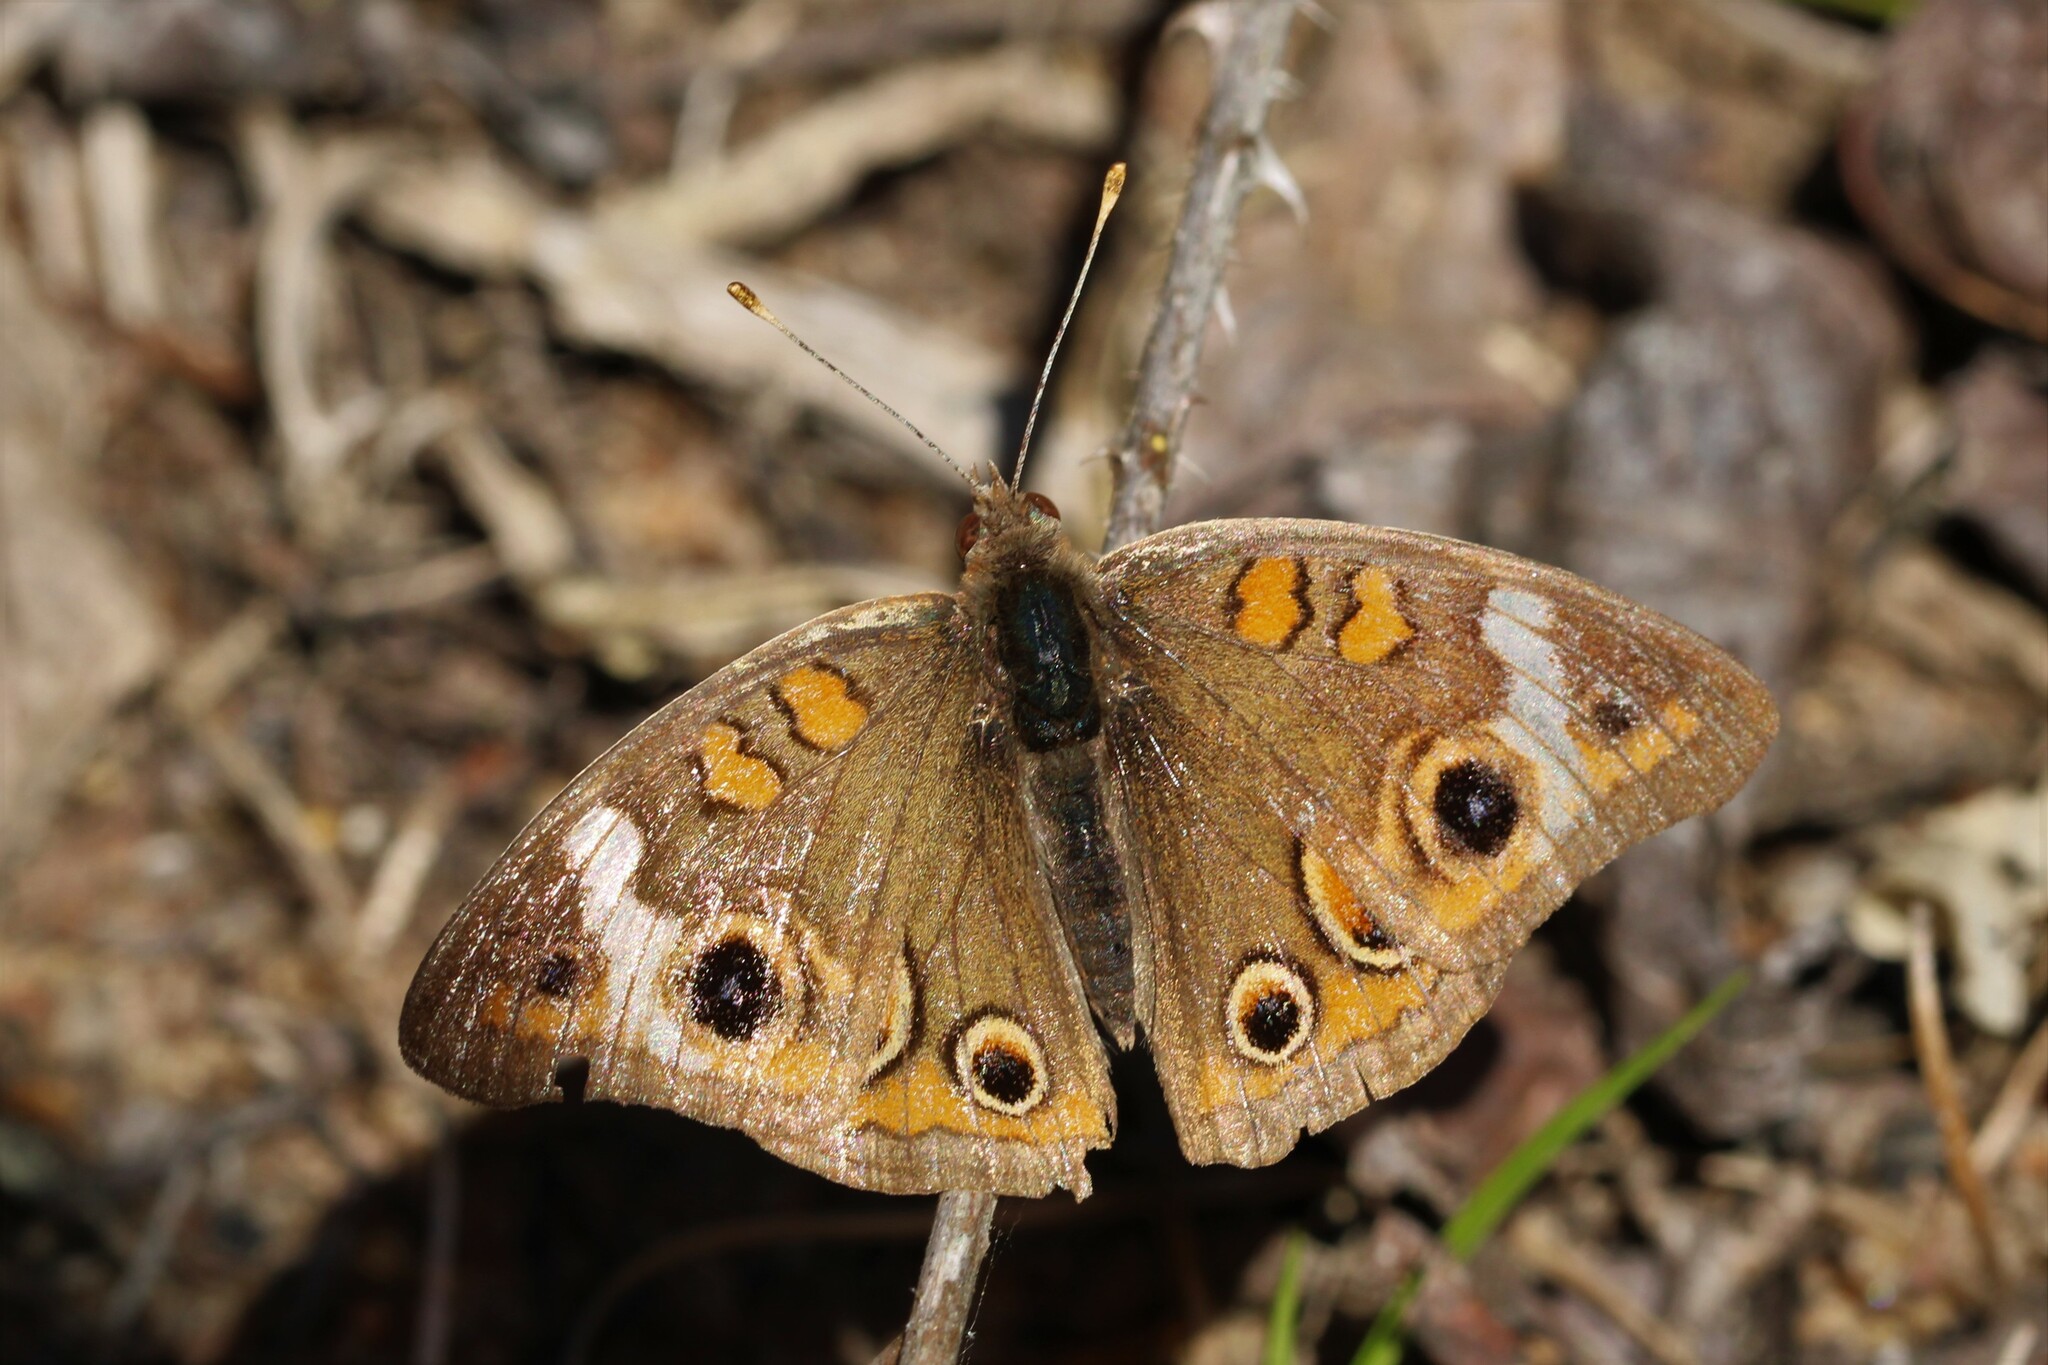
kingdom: Animalia
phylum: Arthropoda
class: Insecta
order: Lepidoptera
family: Nymphalidae
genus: Junonia
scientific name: Junonia coenia
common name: Common buckeye
